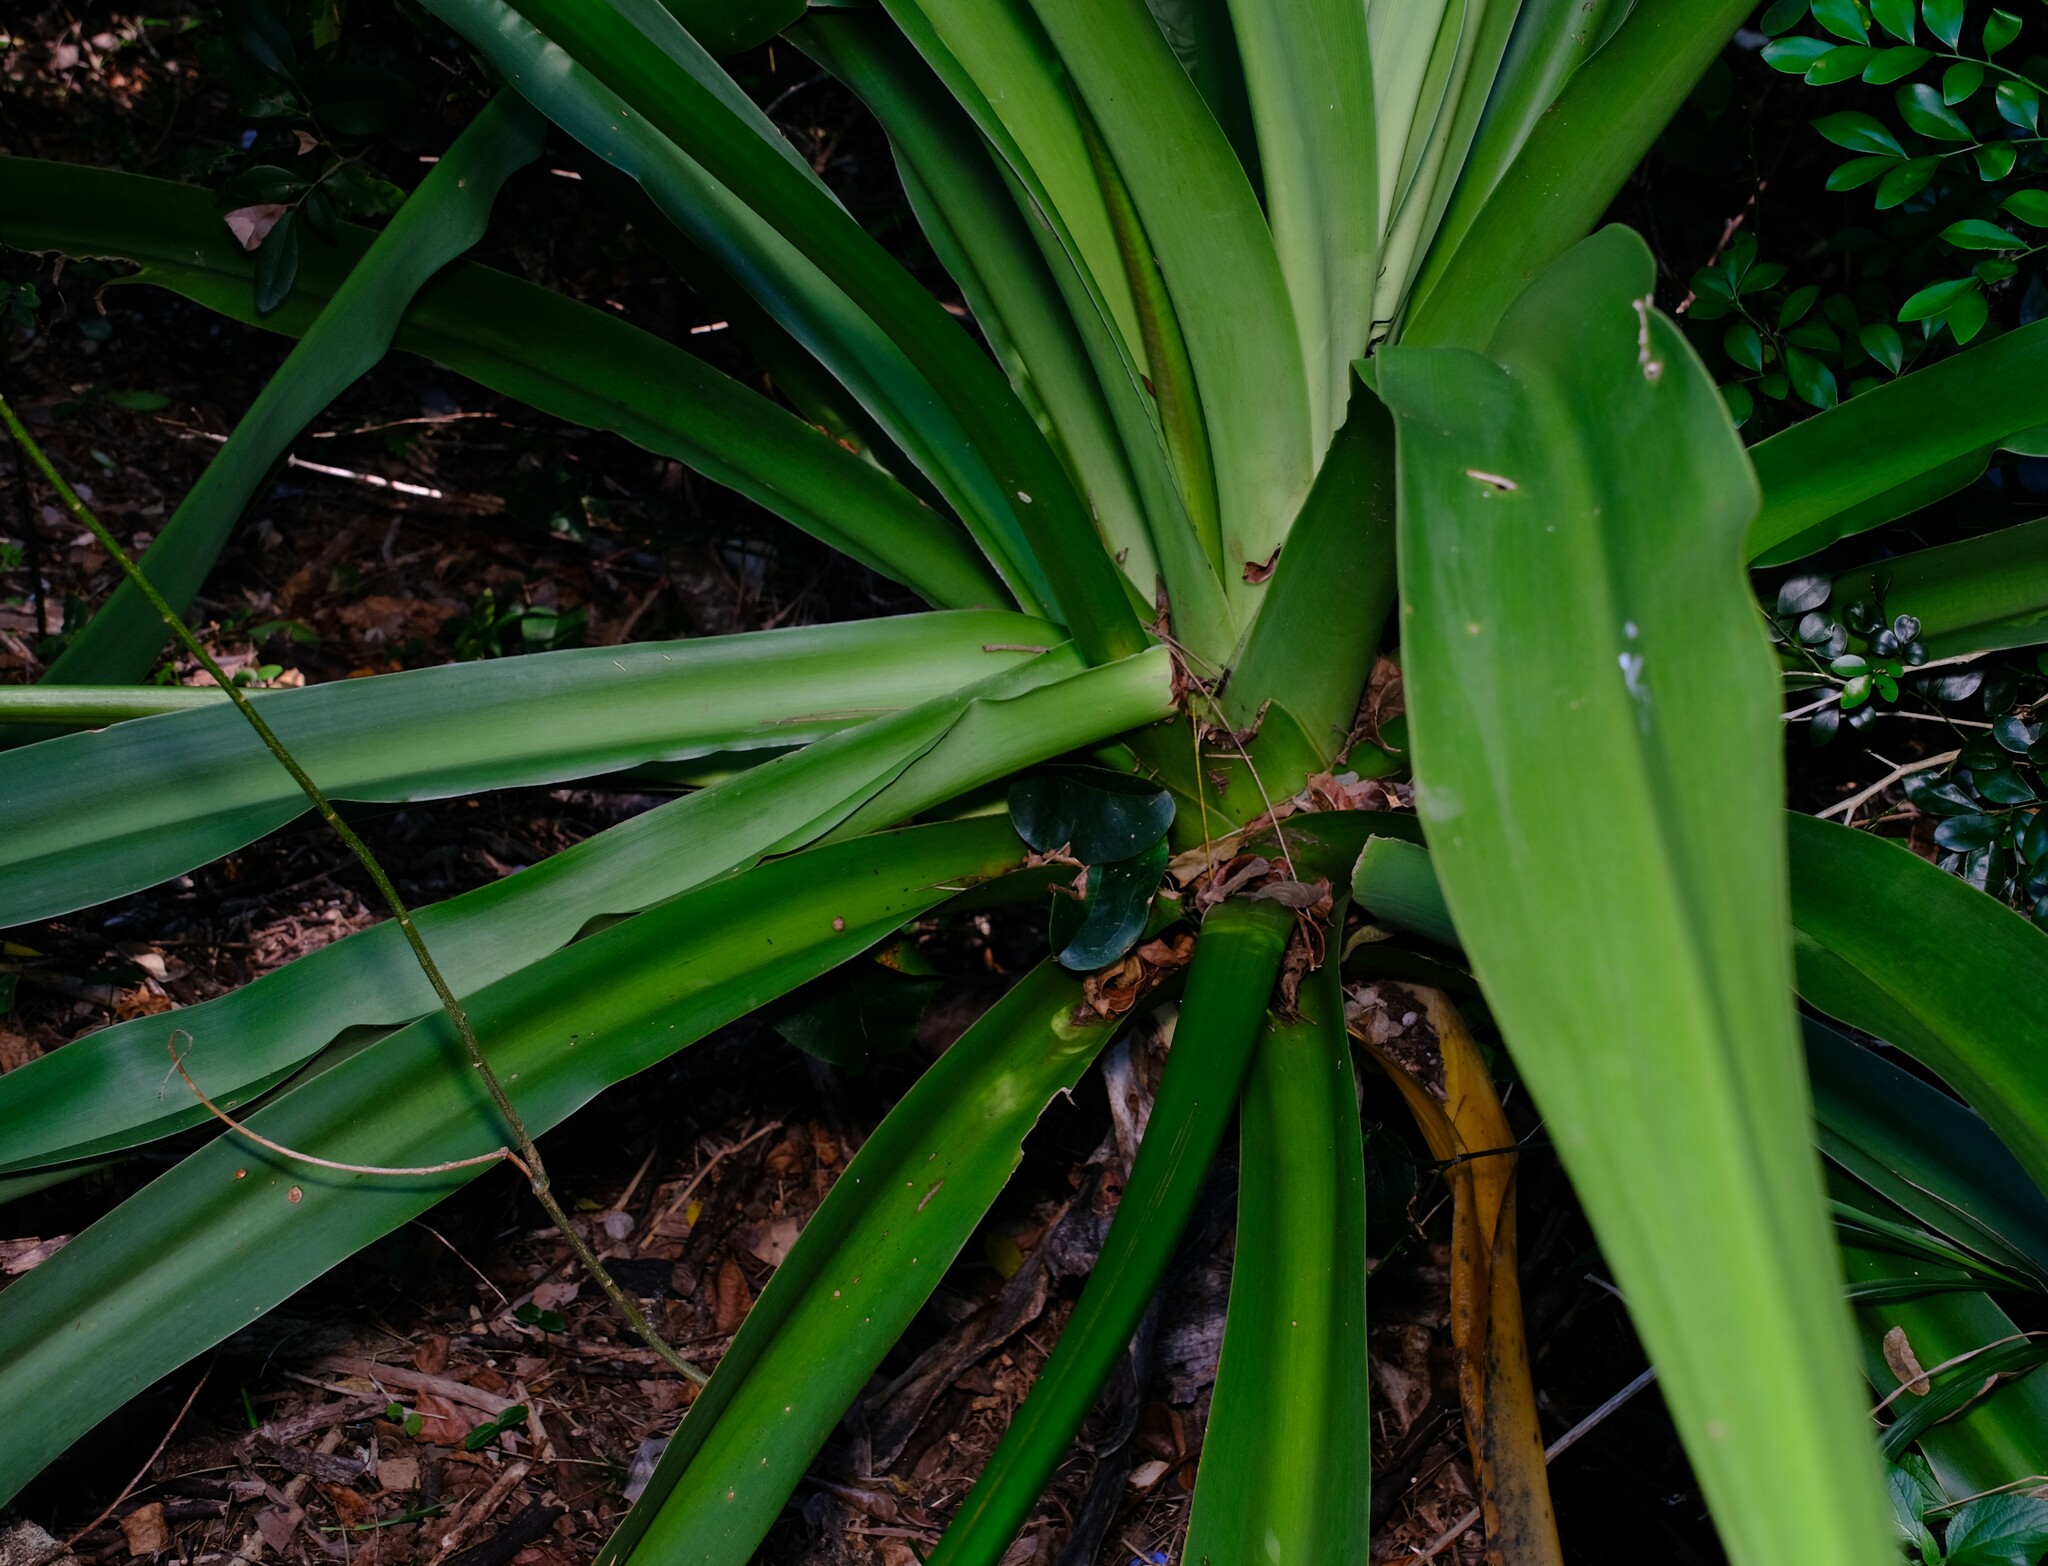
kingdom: Plantae
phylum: Tracheophyta
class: Liliopsida
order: Asparagales
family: Amaryllidaceae
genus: Crinum
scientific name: Crinum pedunculatum
